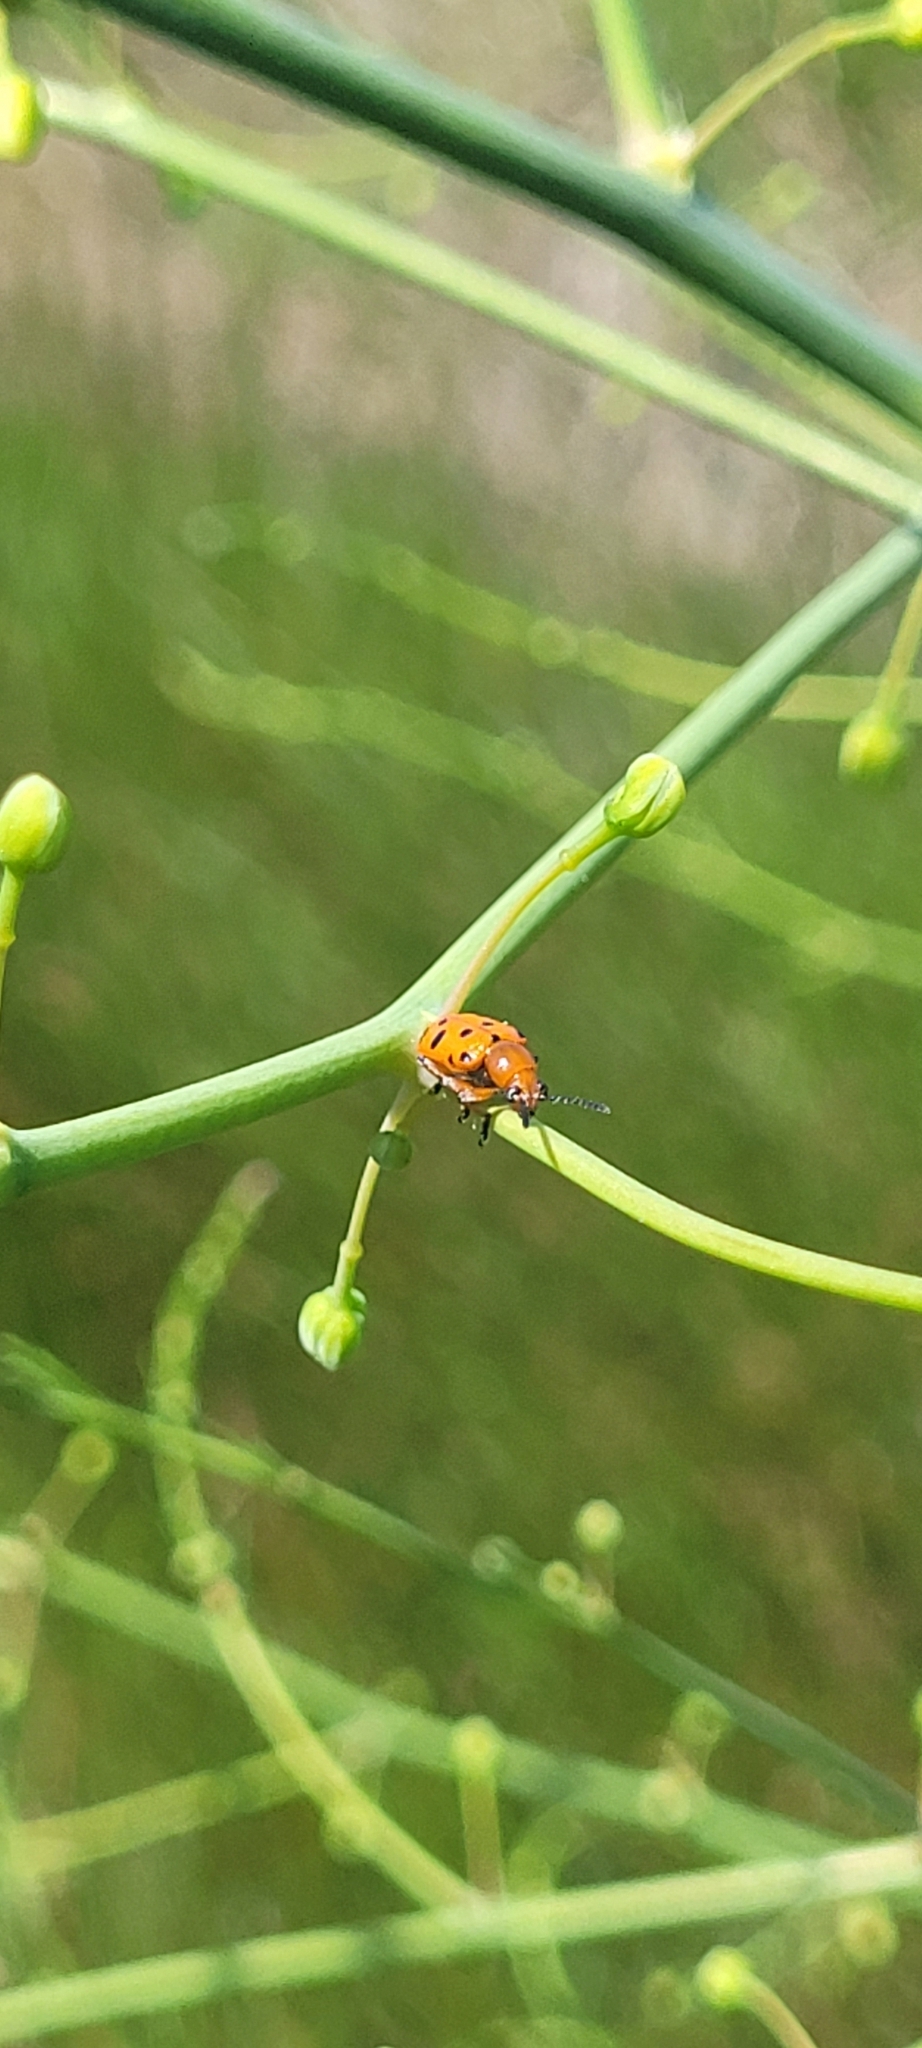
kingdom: Animalia
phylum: Arthropoda
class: Insecta
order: Coleoptera
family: Chrysomelidae
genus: Crioceris
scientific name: Crioceris duodecimpunctata
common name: Twelve-spotted asparagus beetle
